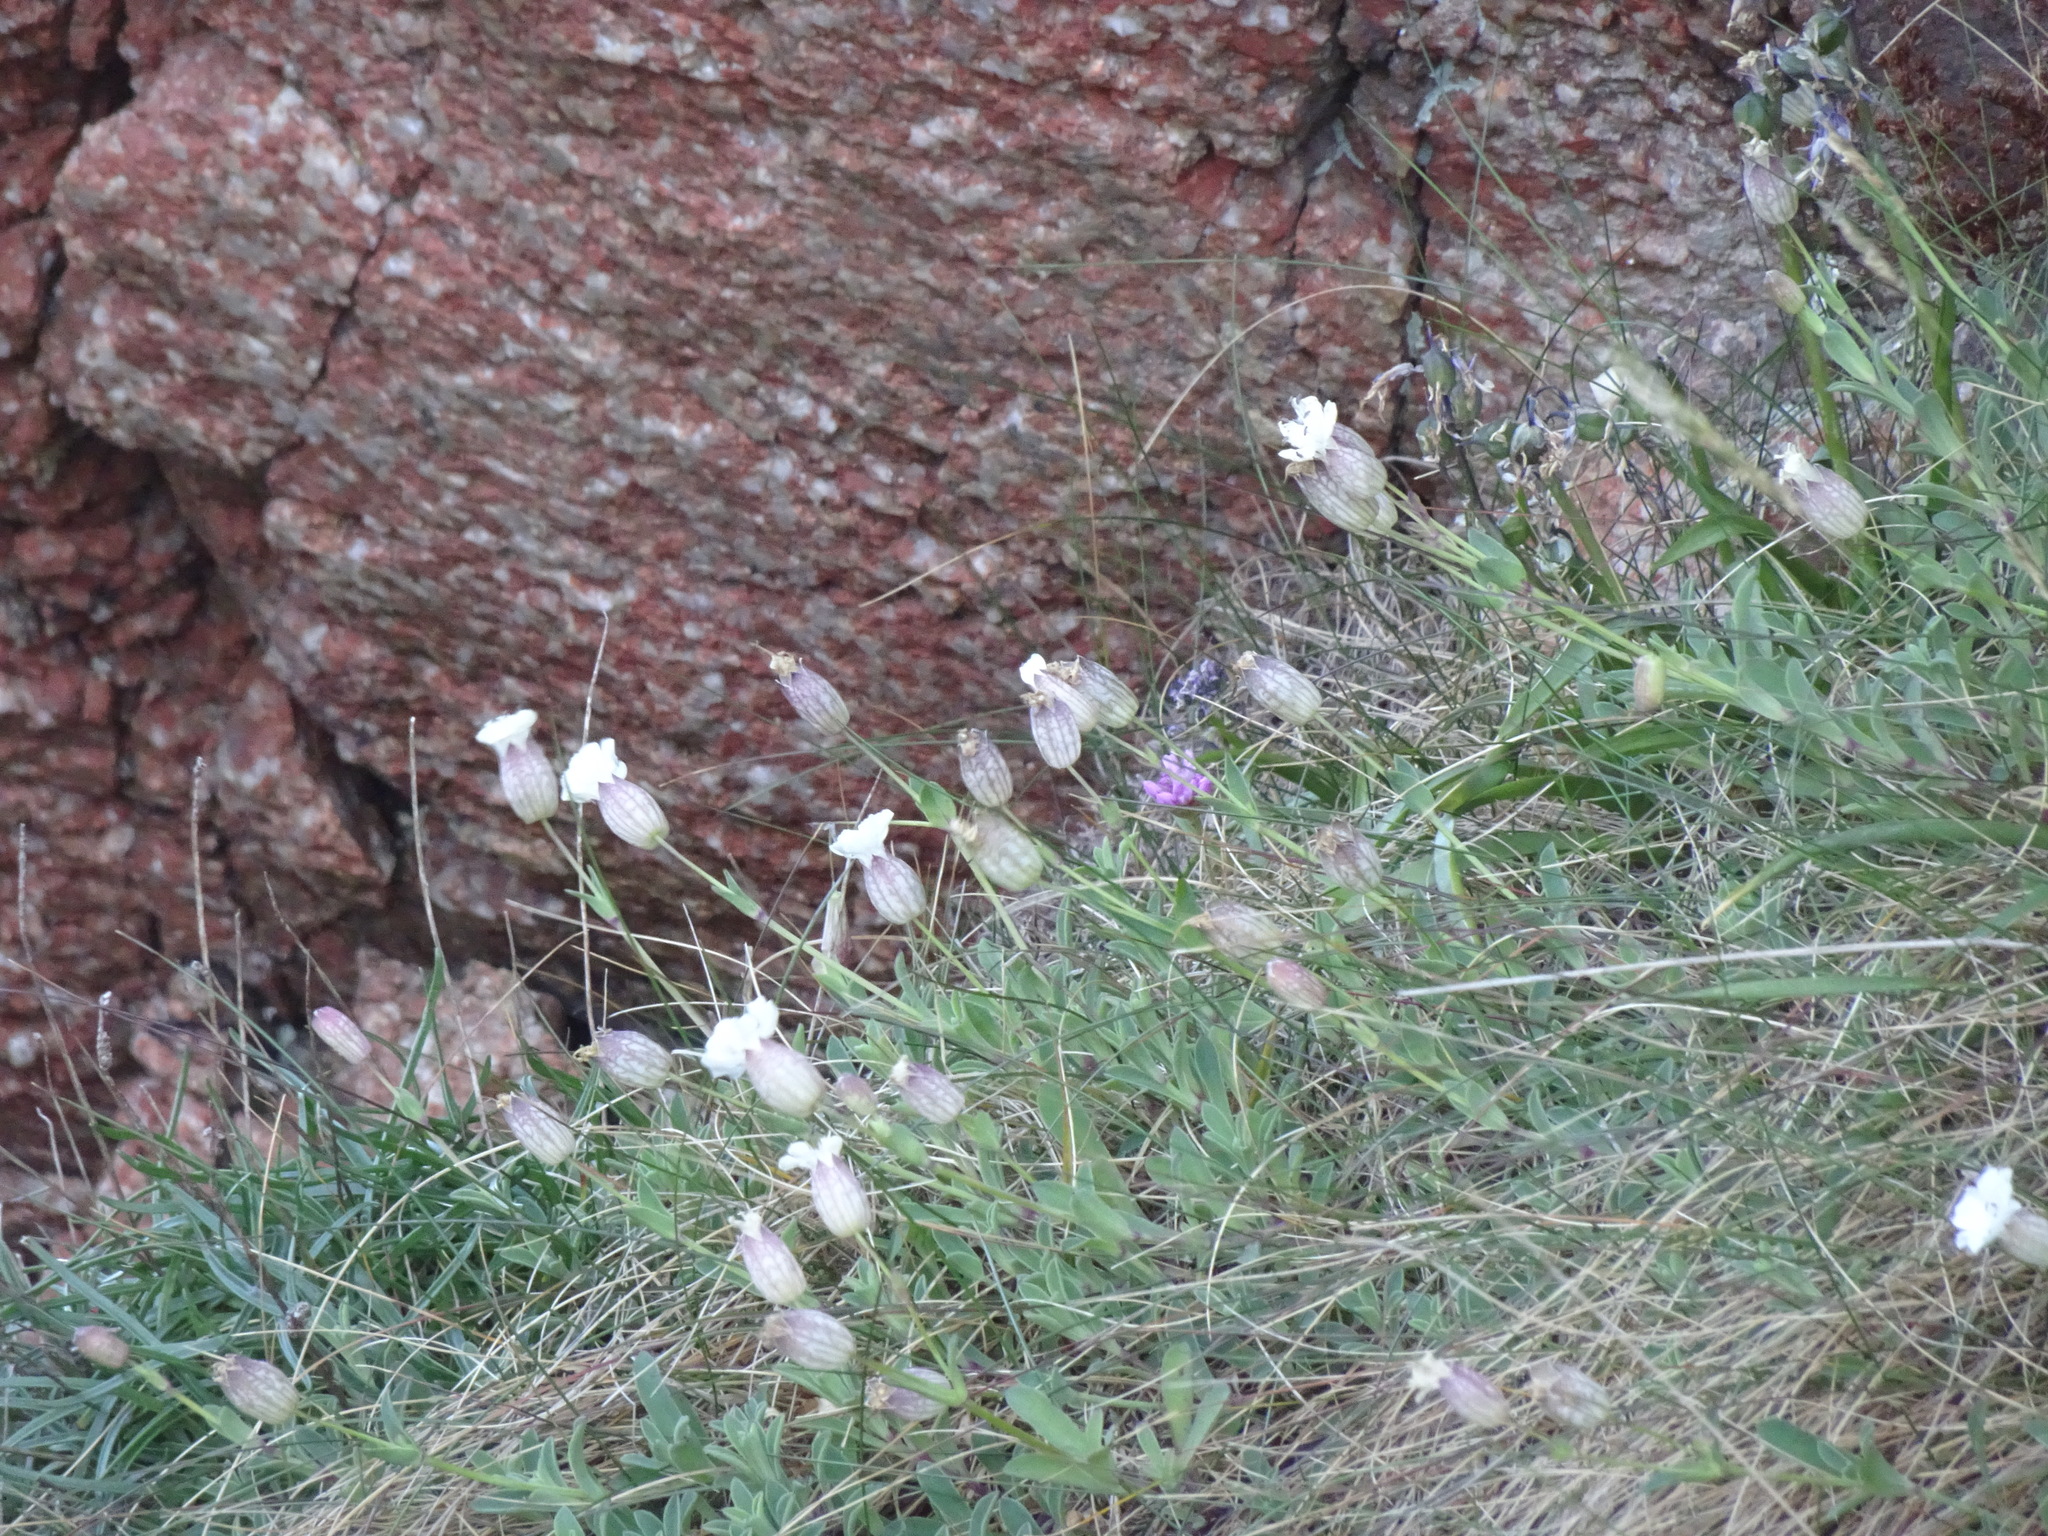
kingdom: Plantae
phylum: Tracheophyta
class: Magnoliopsida
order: Caryophyllales
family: Caryophyllaceae
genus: Silene
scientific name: Silene uniflora
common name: Sea campion
